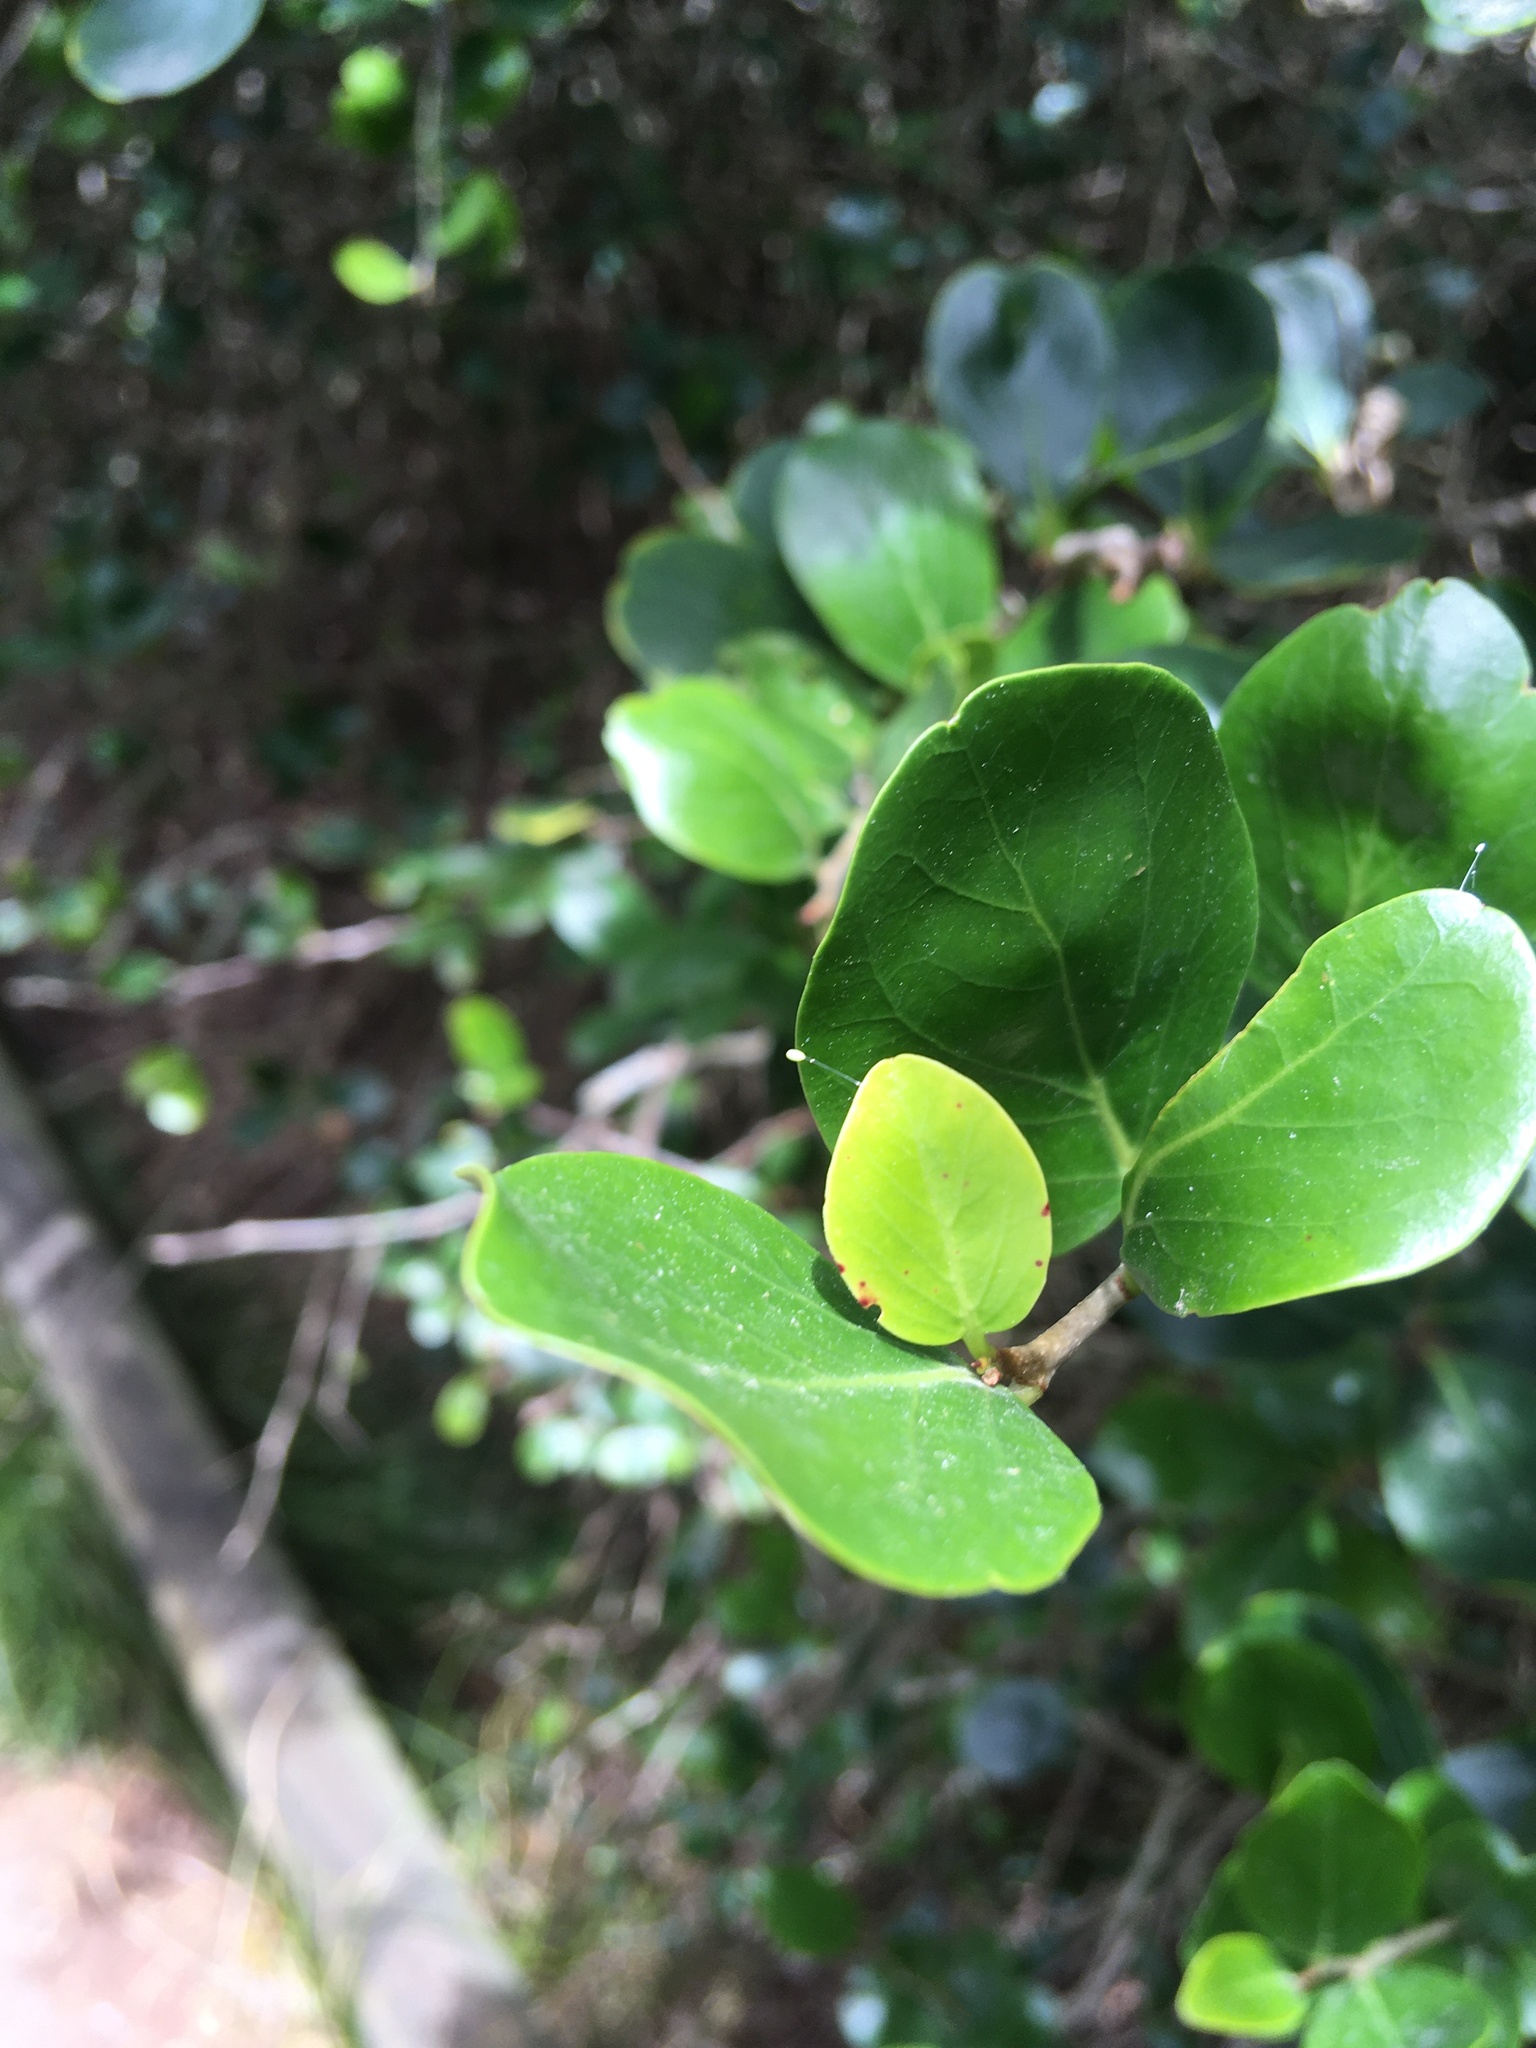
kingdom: Animalia
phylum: Arthropoda
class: Insecta
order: Neuroptera
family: Chrysopidae
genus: Mallada
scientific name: Mallada basalis
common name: Green lacewing
